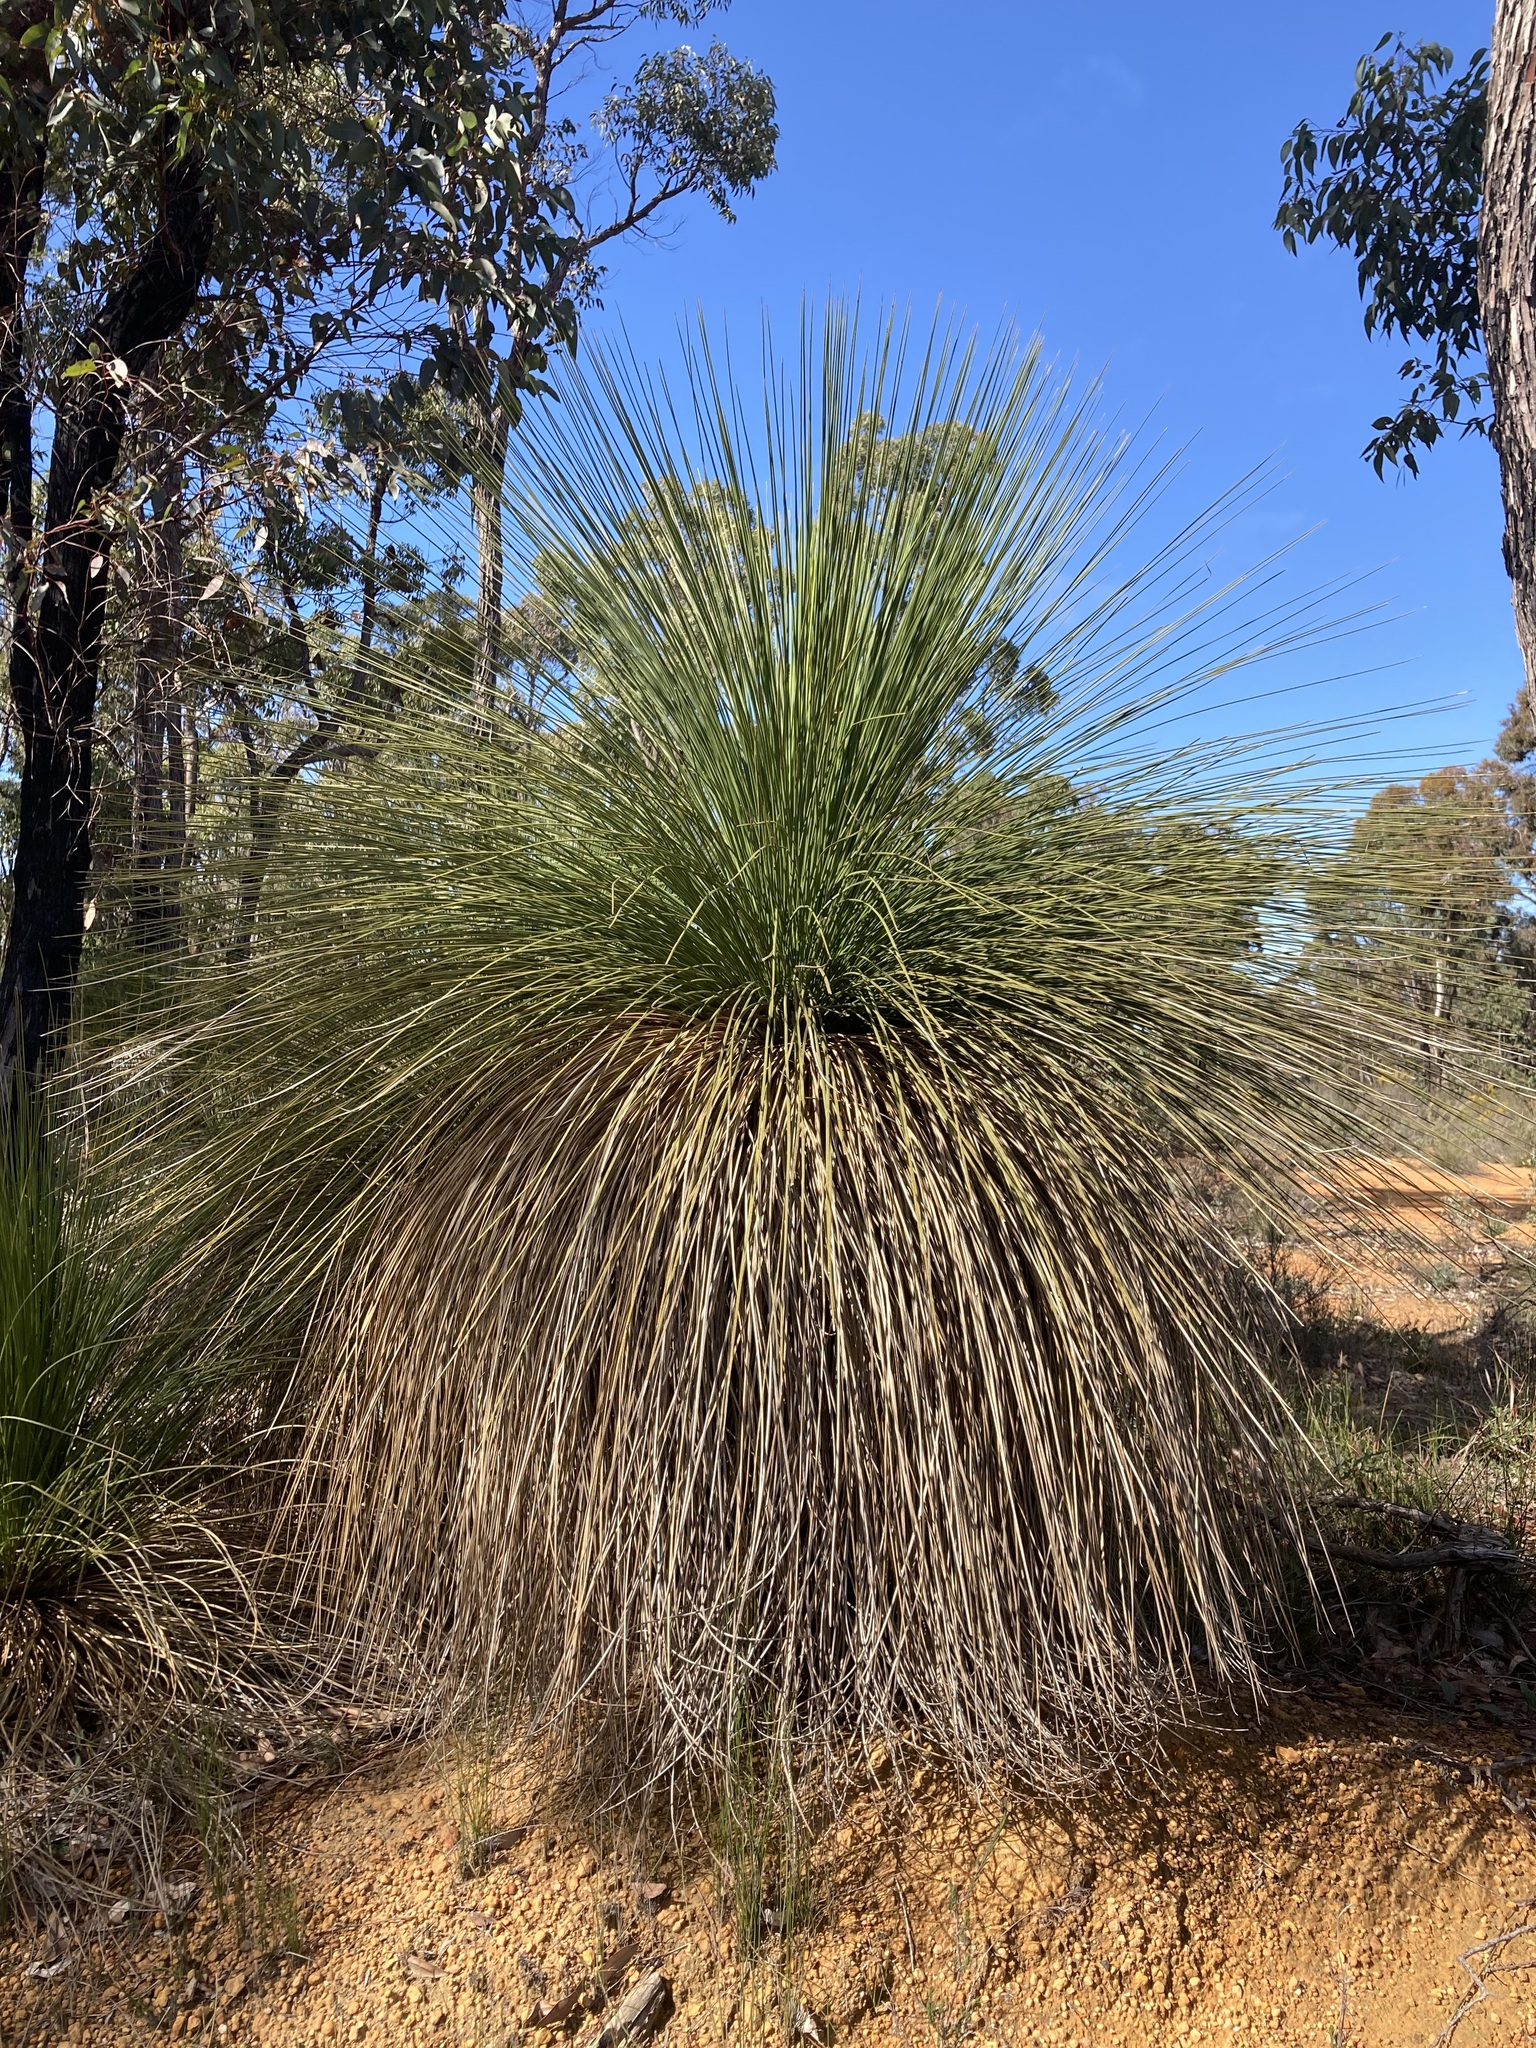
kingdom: Plantae
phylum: Tracheophyta
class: Liliopsida
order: Asparagales
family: Asphodelaceae
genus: Xanthorrhoea
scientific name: Xanthorrhoea preissii
